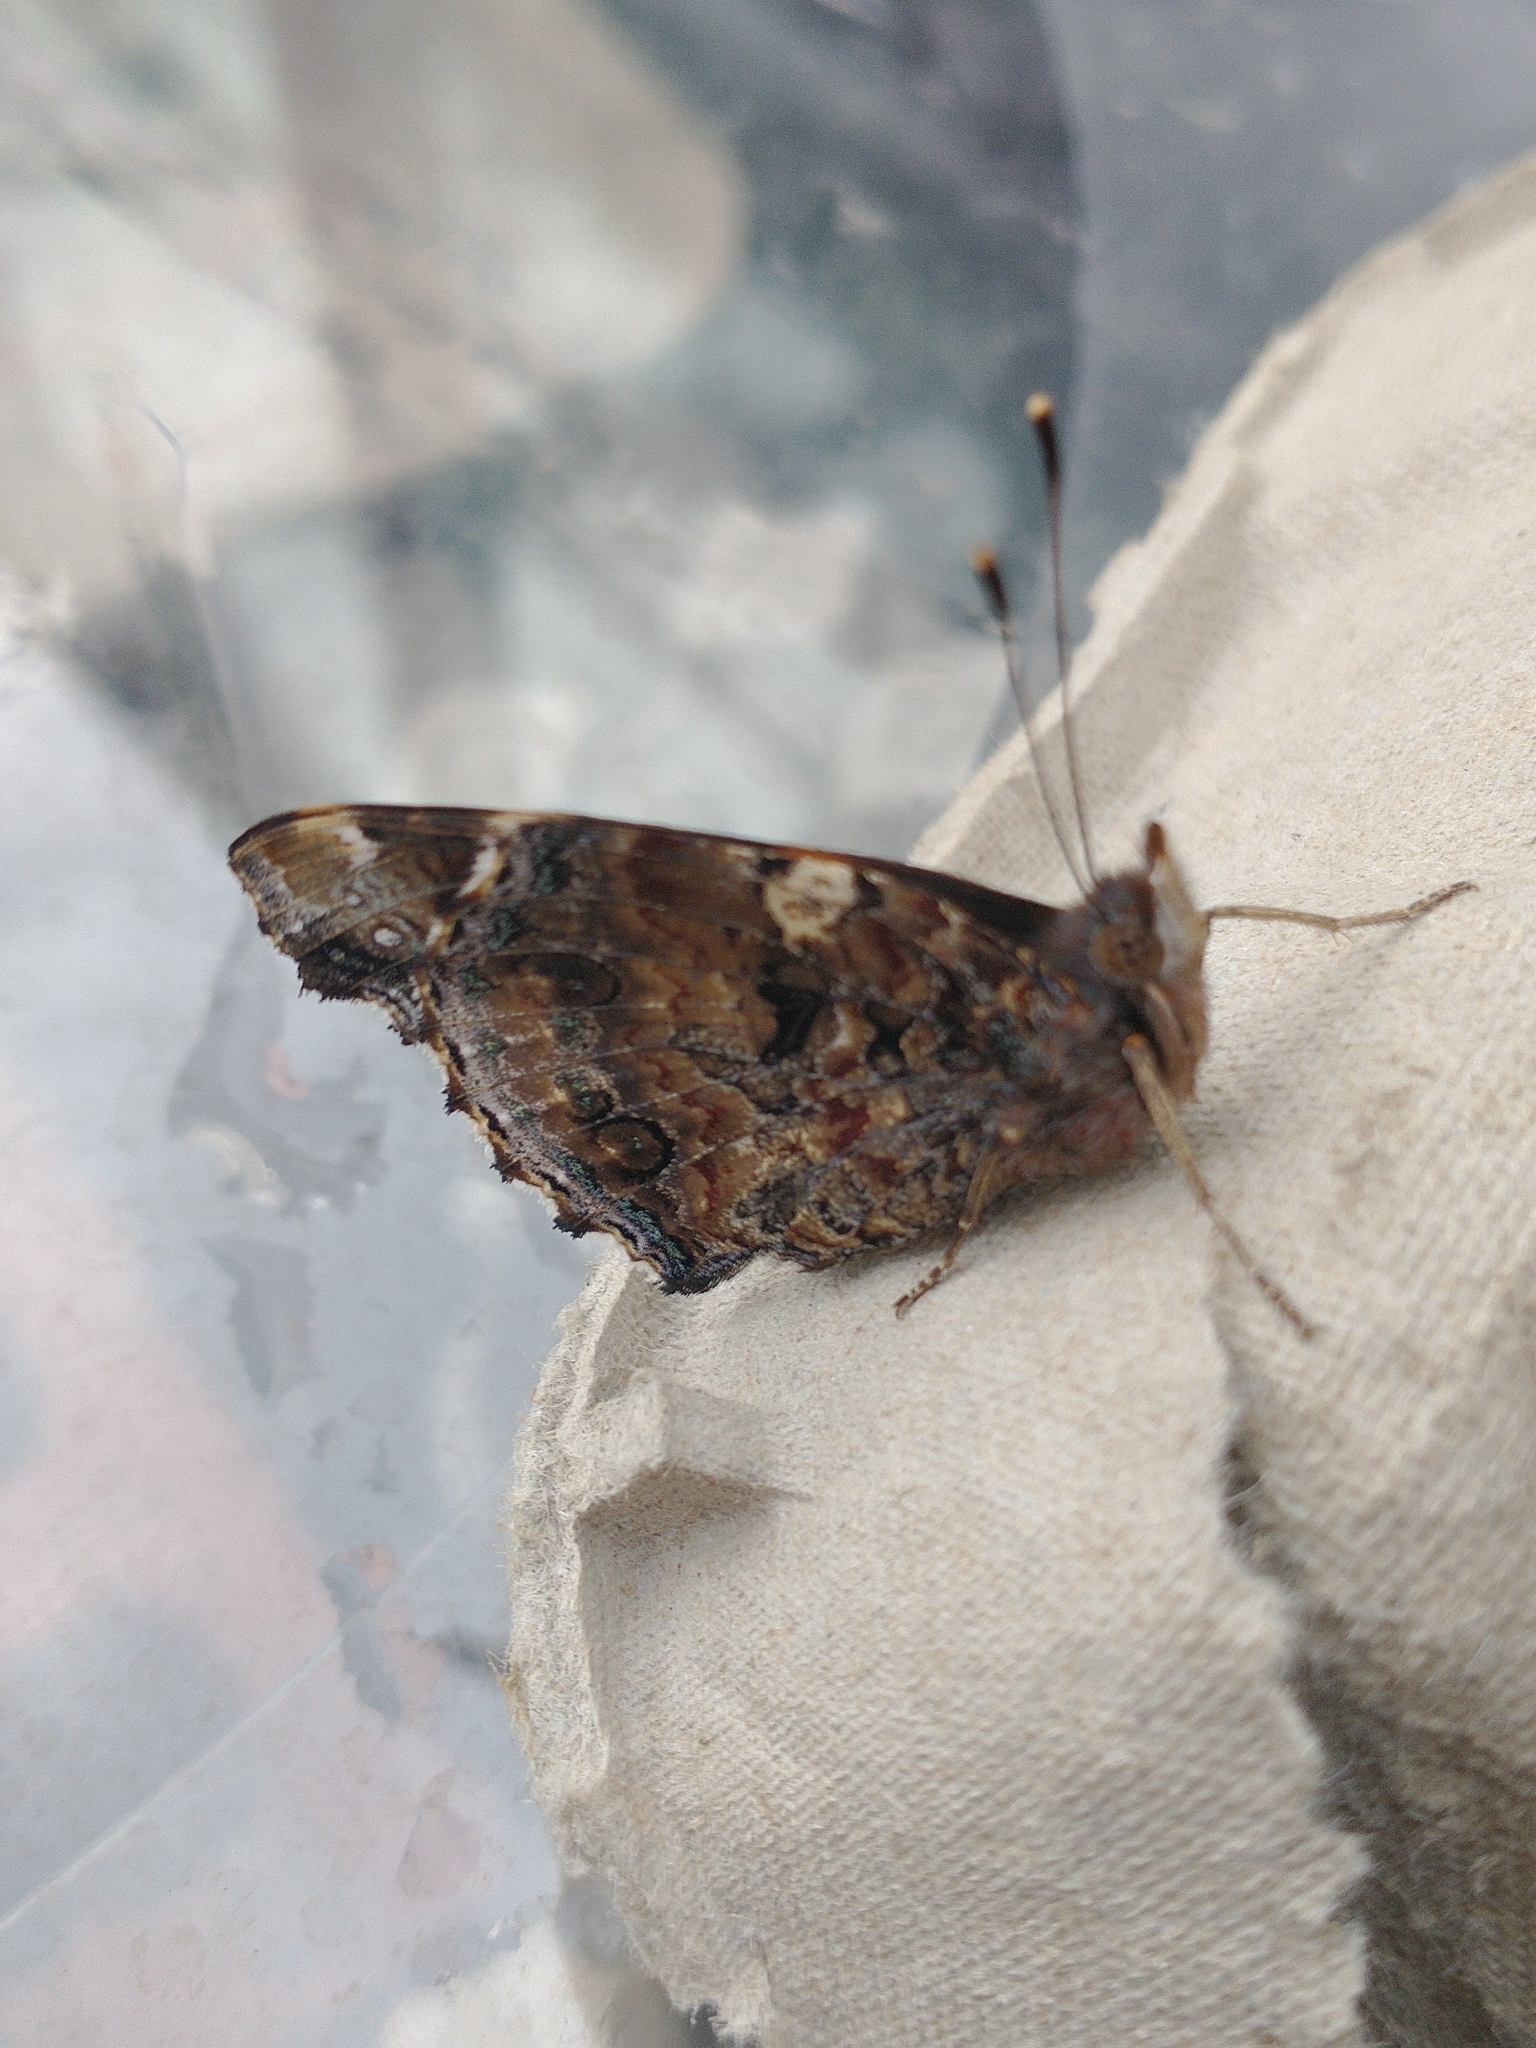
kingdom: Animalia
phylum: Arthropoda
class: Insecta
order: Lepidoptera
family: Nymphalidae
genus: Vanessa
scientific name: Vanessa atalanta
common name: Red admiral
